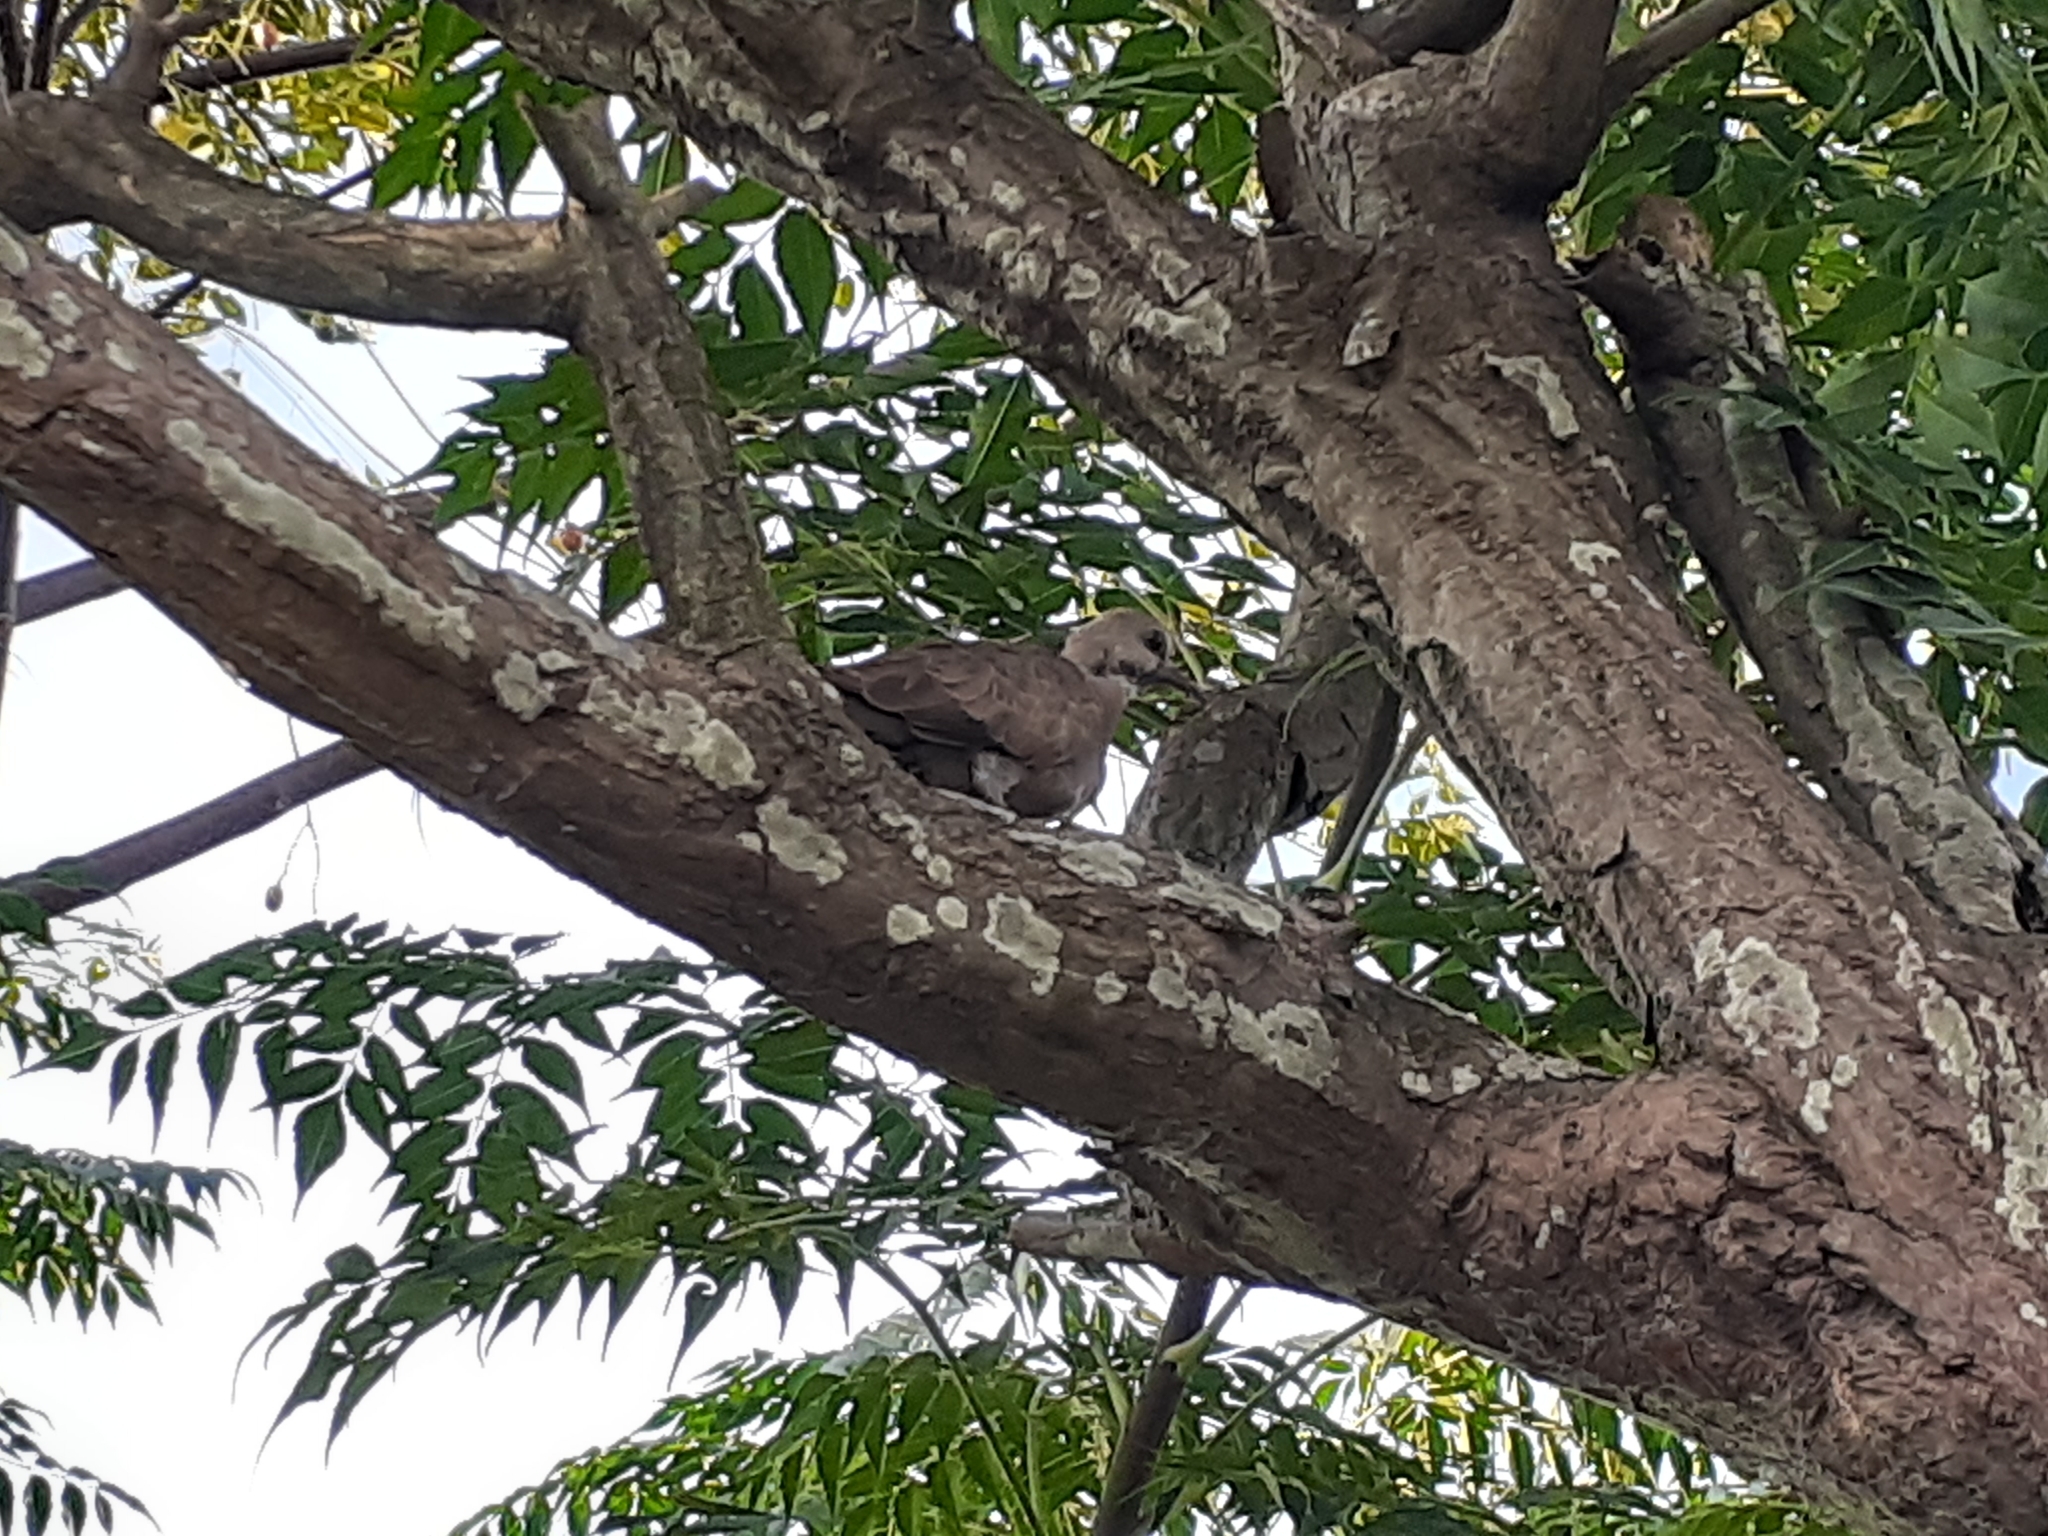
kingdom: Animalia
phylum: Chordata
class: Aves
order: Columbiformes
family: Columbidae
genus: Streptopelia
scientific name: Streptopelia tranquebarica
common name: Red turtle dove
